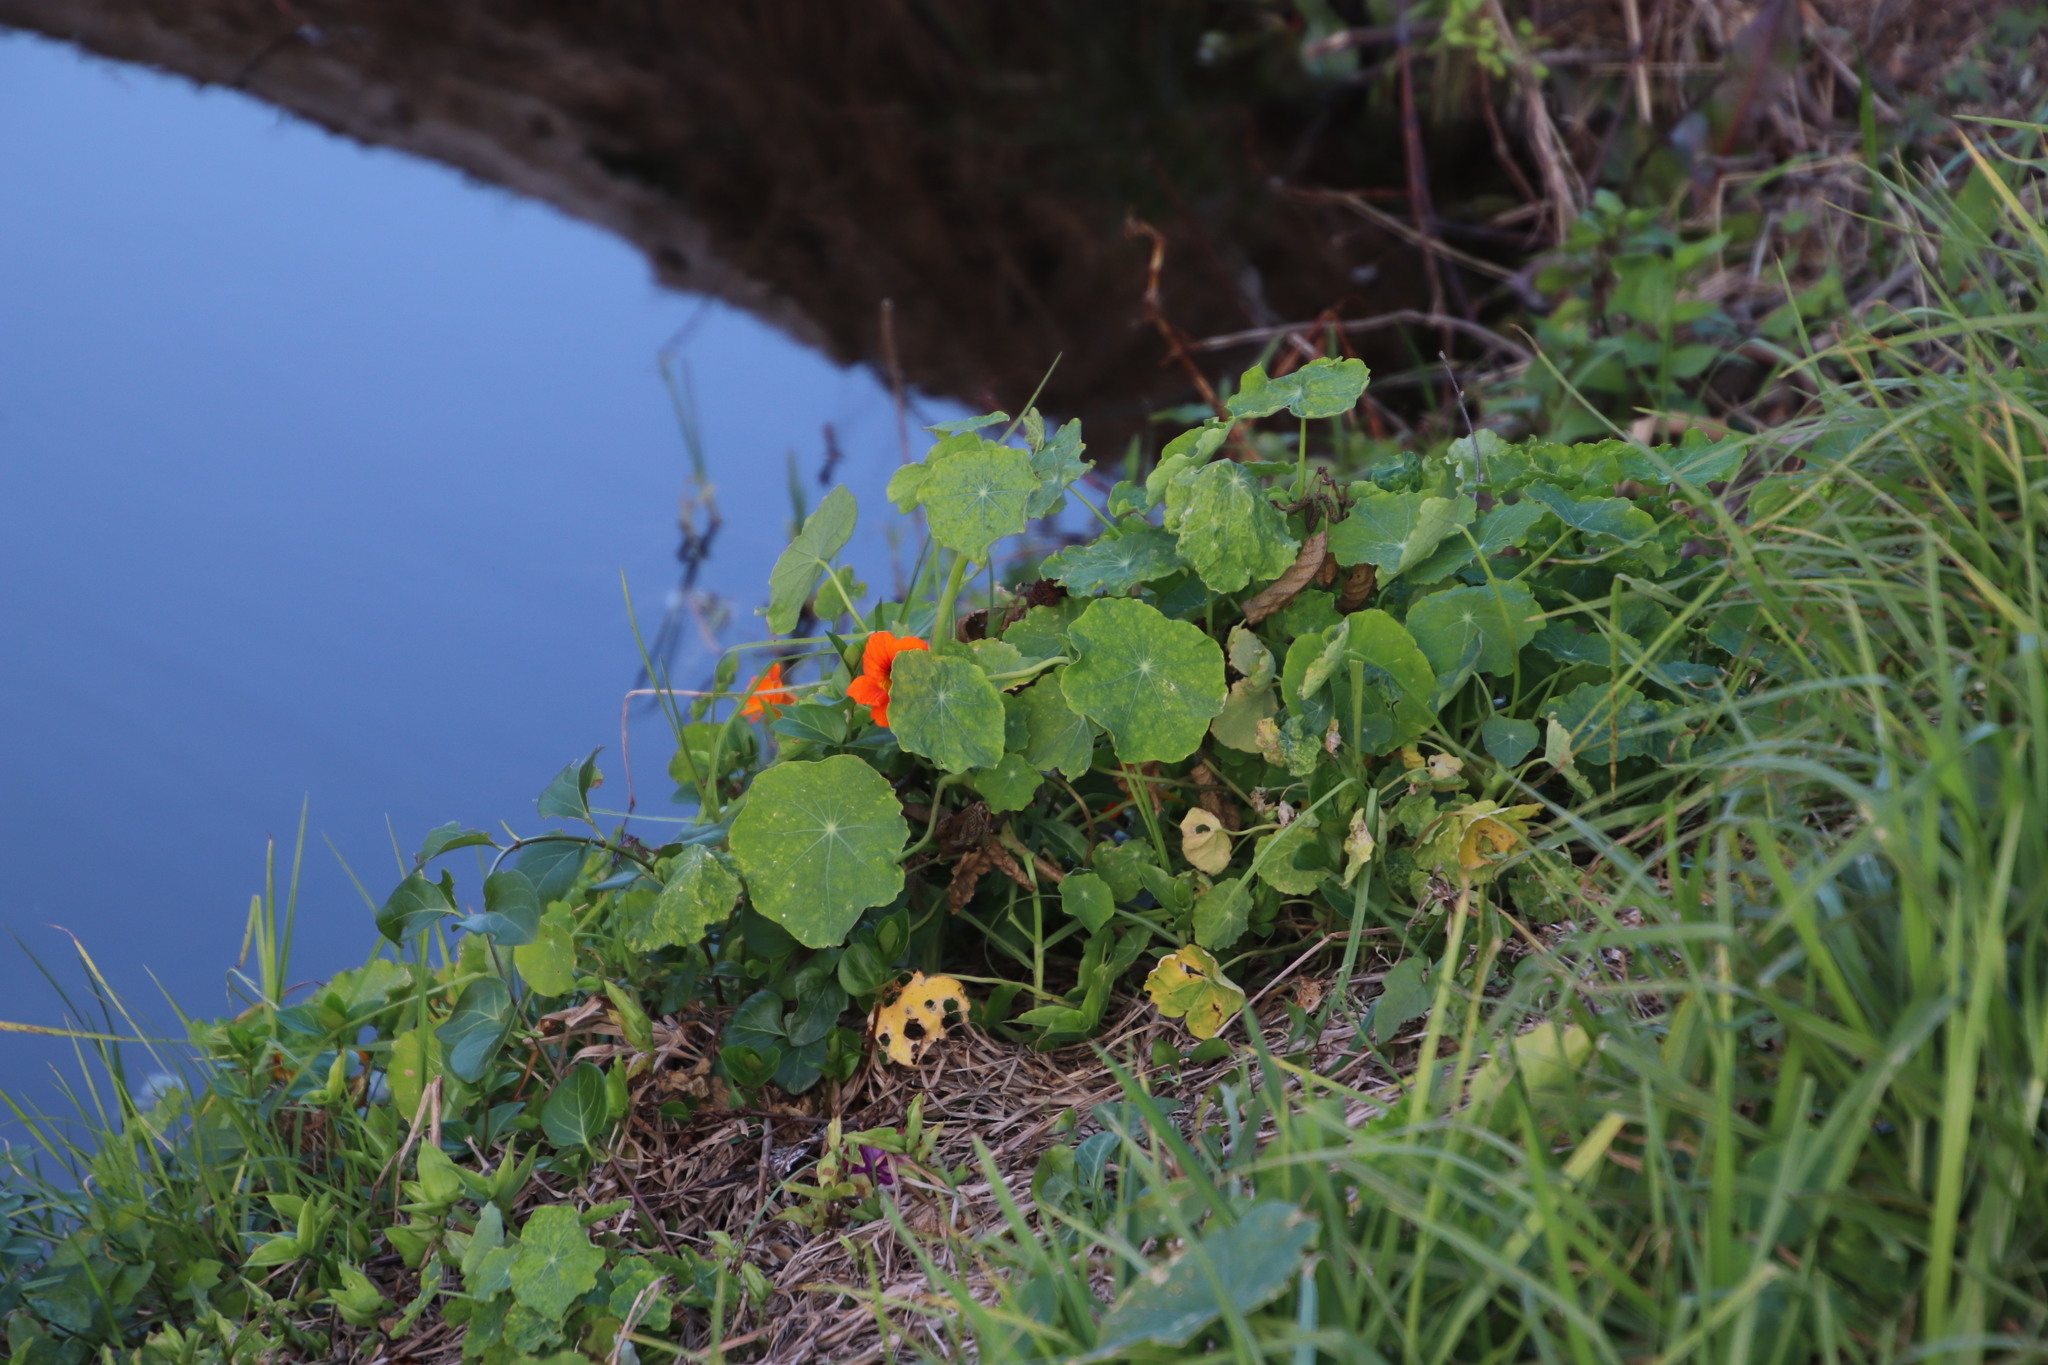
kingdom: Plantae
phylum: Tracheophyta
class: Magnoliopsida
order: Brassicales
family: Tropaeolaceae
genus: Tropaeolum
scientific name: Tropaeolum majus
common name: Nasturtium
